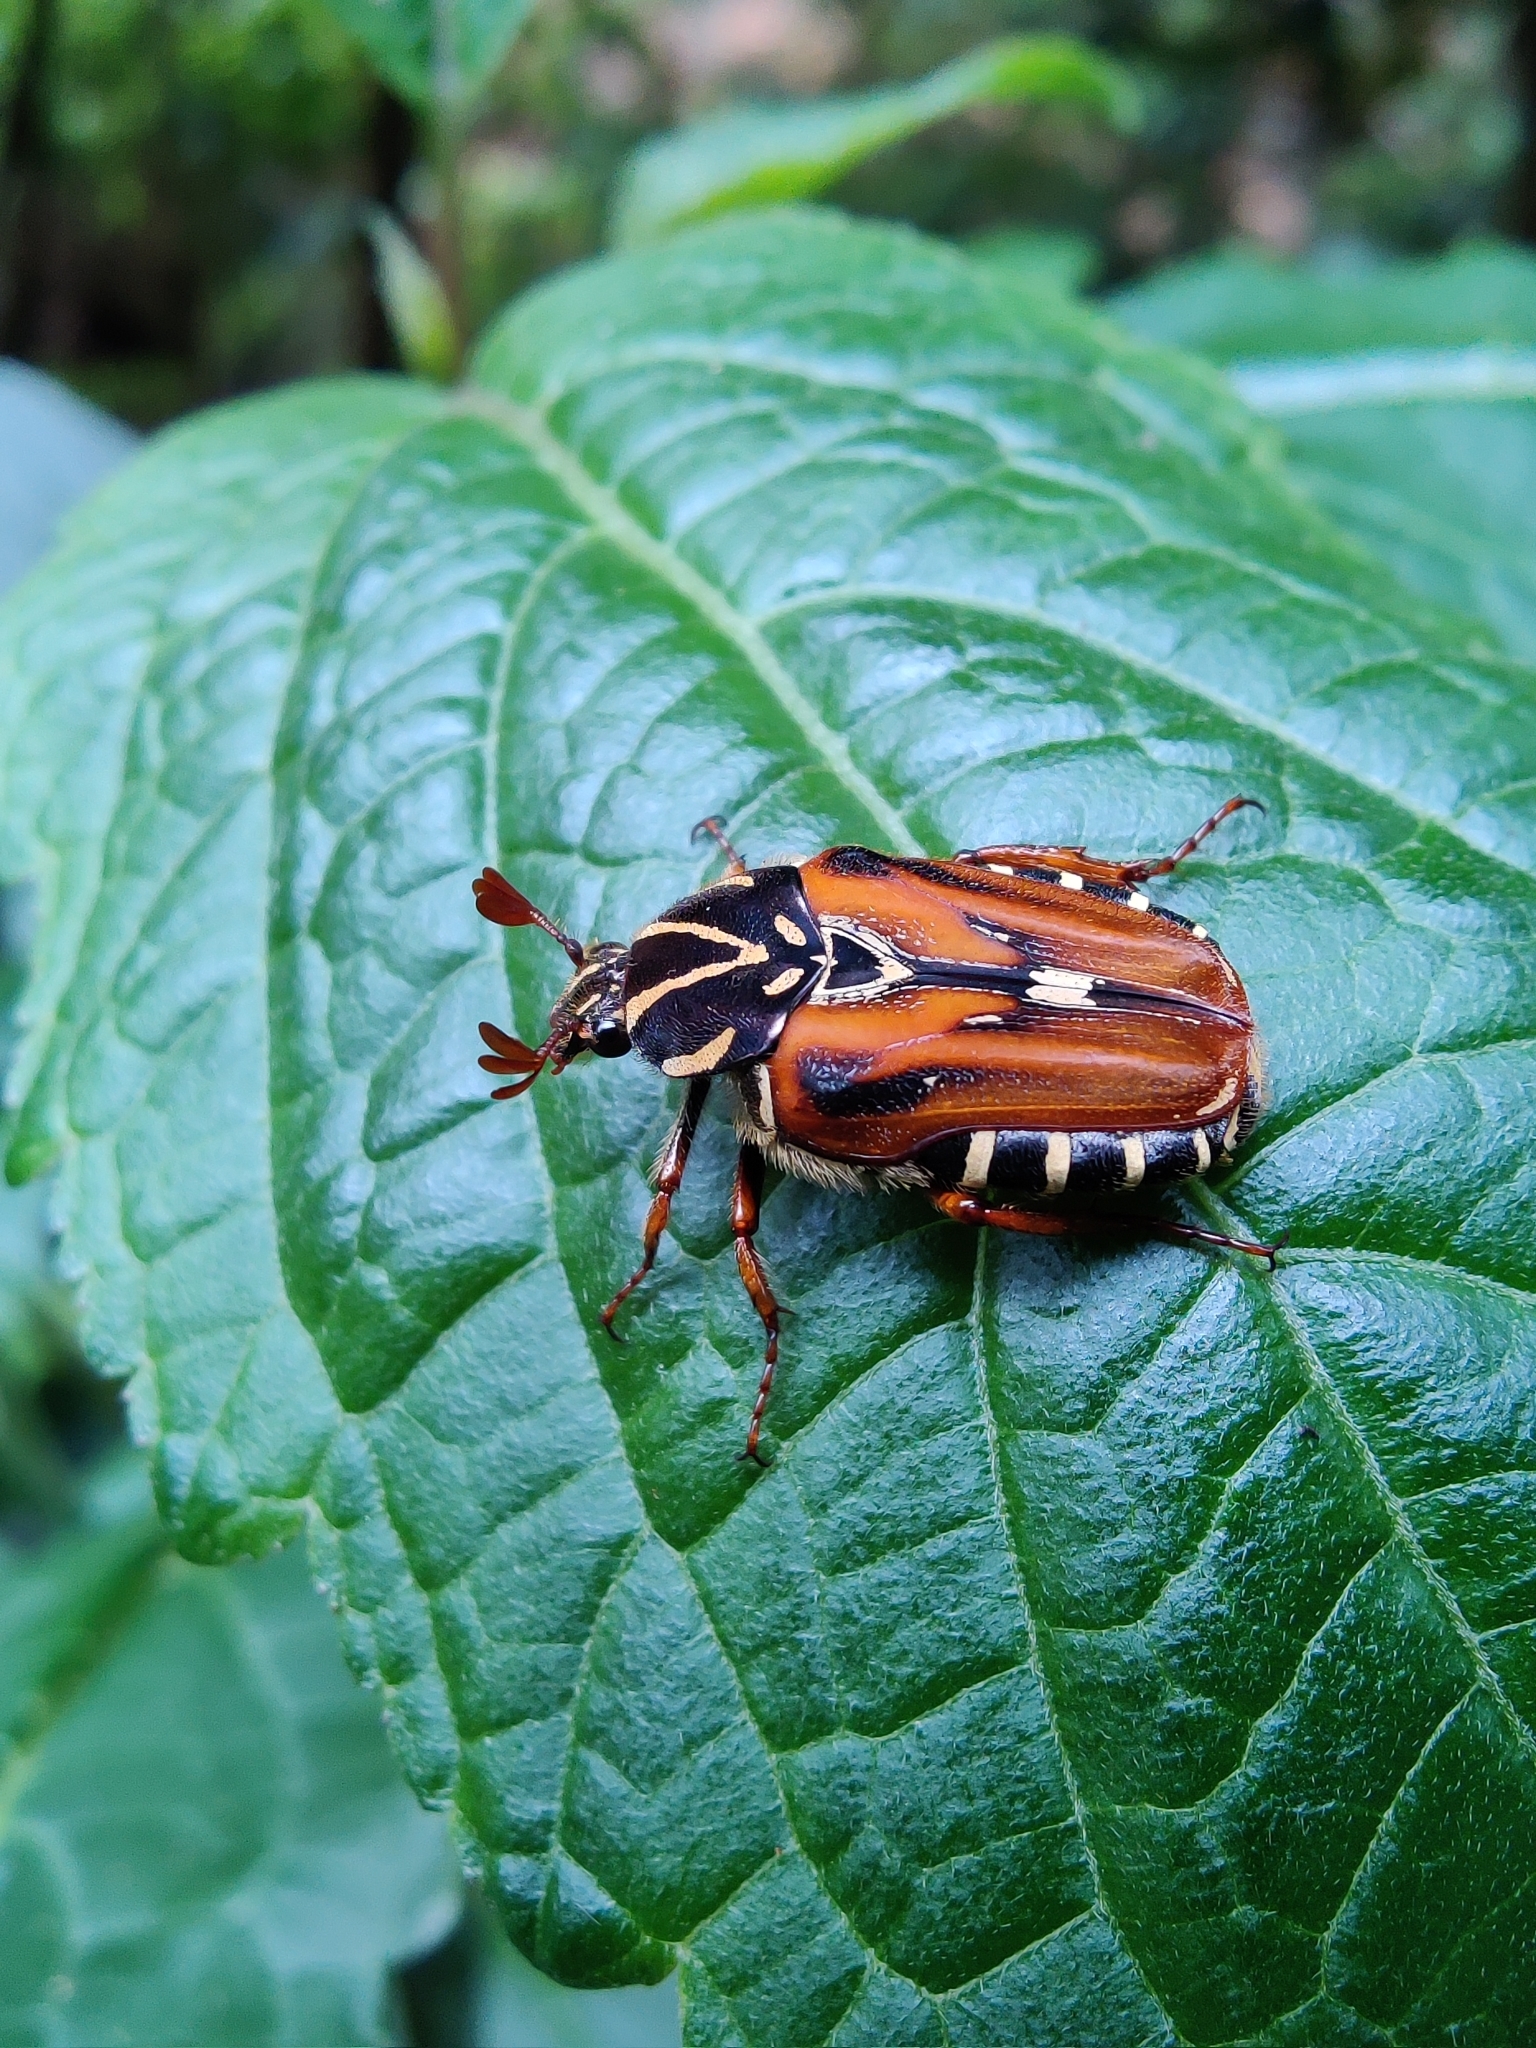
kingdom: Animalia
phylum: Arthropoda
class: Insecta
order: Coleoptera
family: Scarabaeidae
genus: Taeniodera
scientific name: Taeniodera waterhousei
